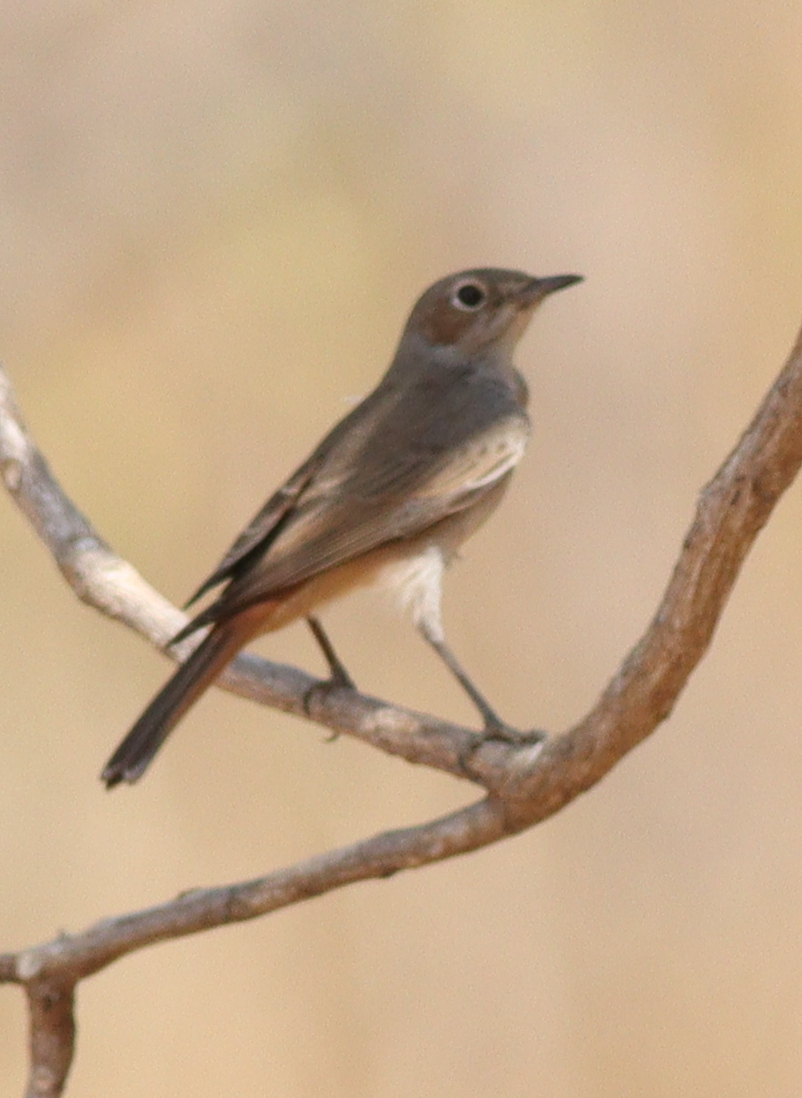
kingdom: Animalia
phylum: Chordata
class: Aves
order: Passeriformes
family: Muscicapidae
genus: Oenanthe
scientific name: Oenanthe familiaris
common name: Familiar chat
